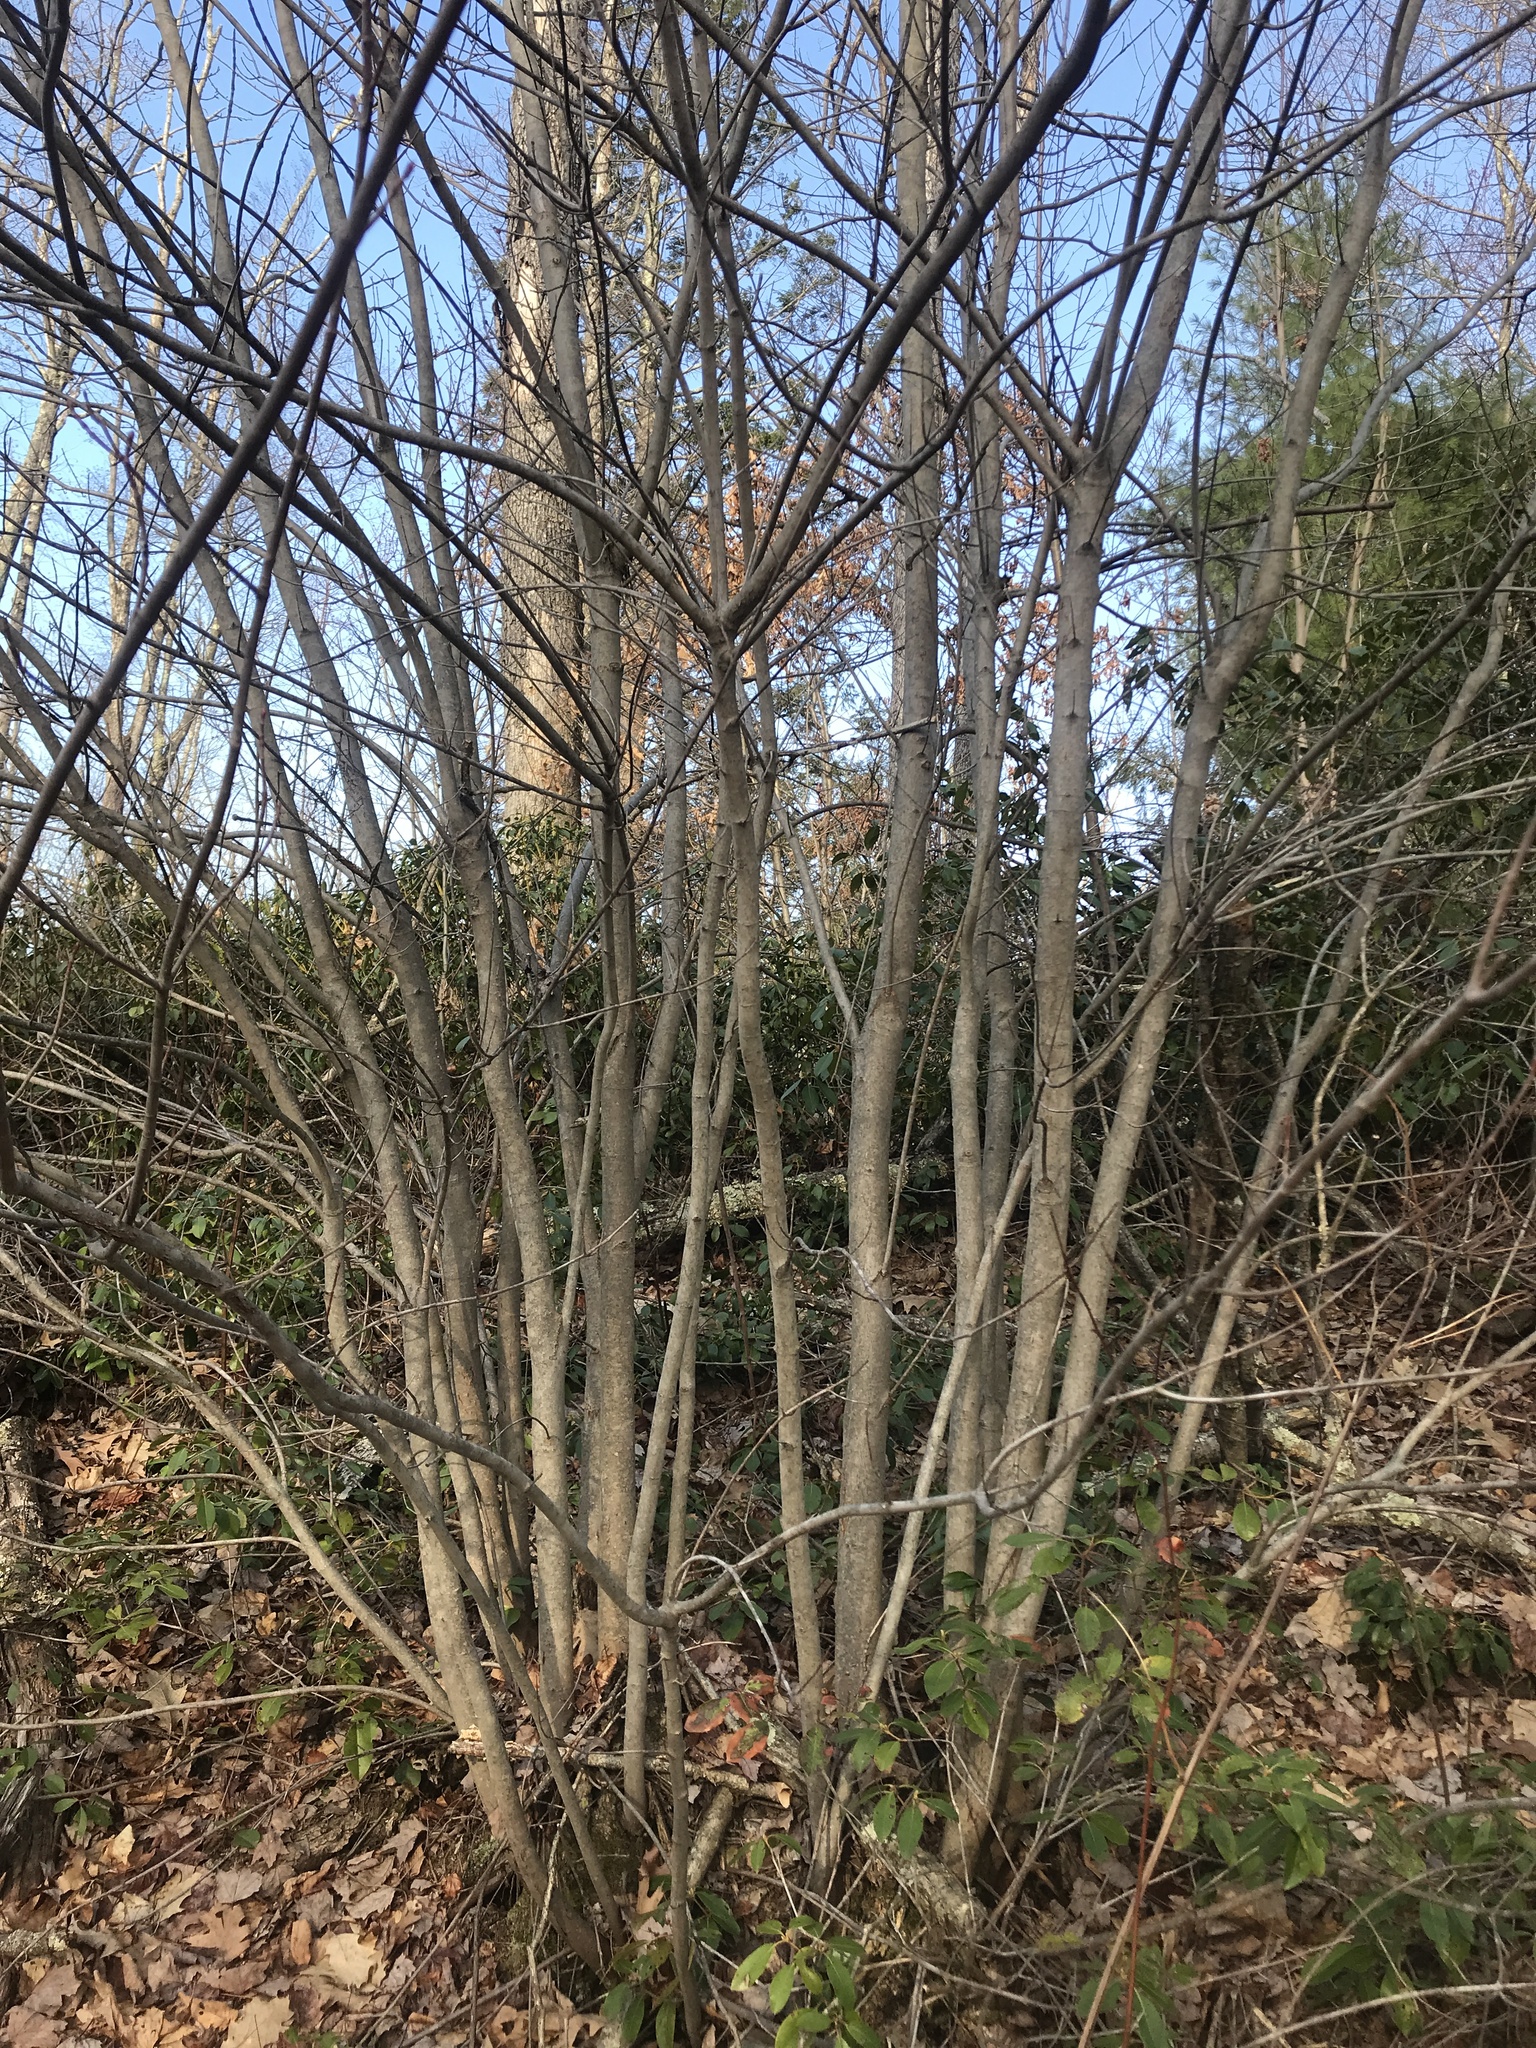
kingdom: Plantae
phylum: Tracheophyta
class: Magnoliopsida
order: Sapindales
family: Sapindaceae
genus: Acer
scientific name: Acer rubrum
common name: Red maple
